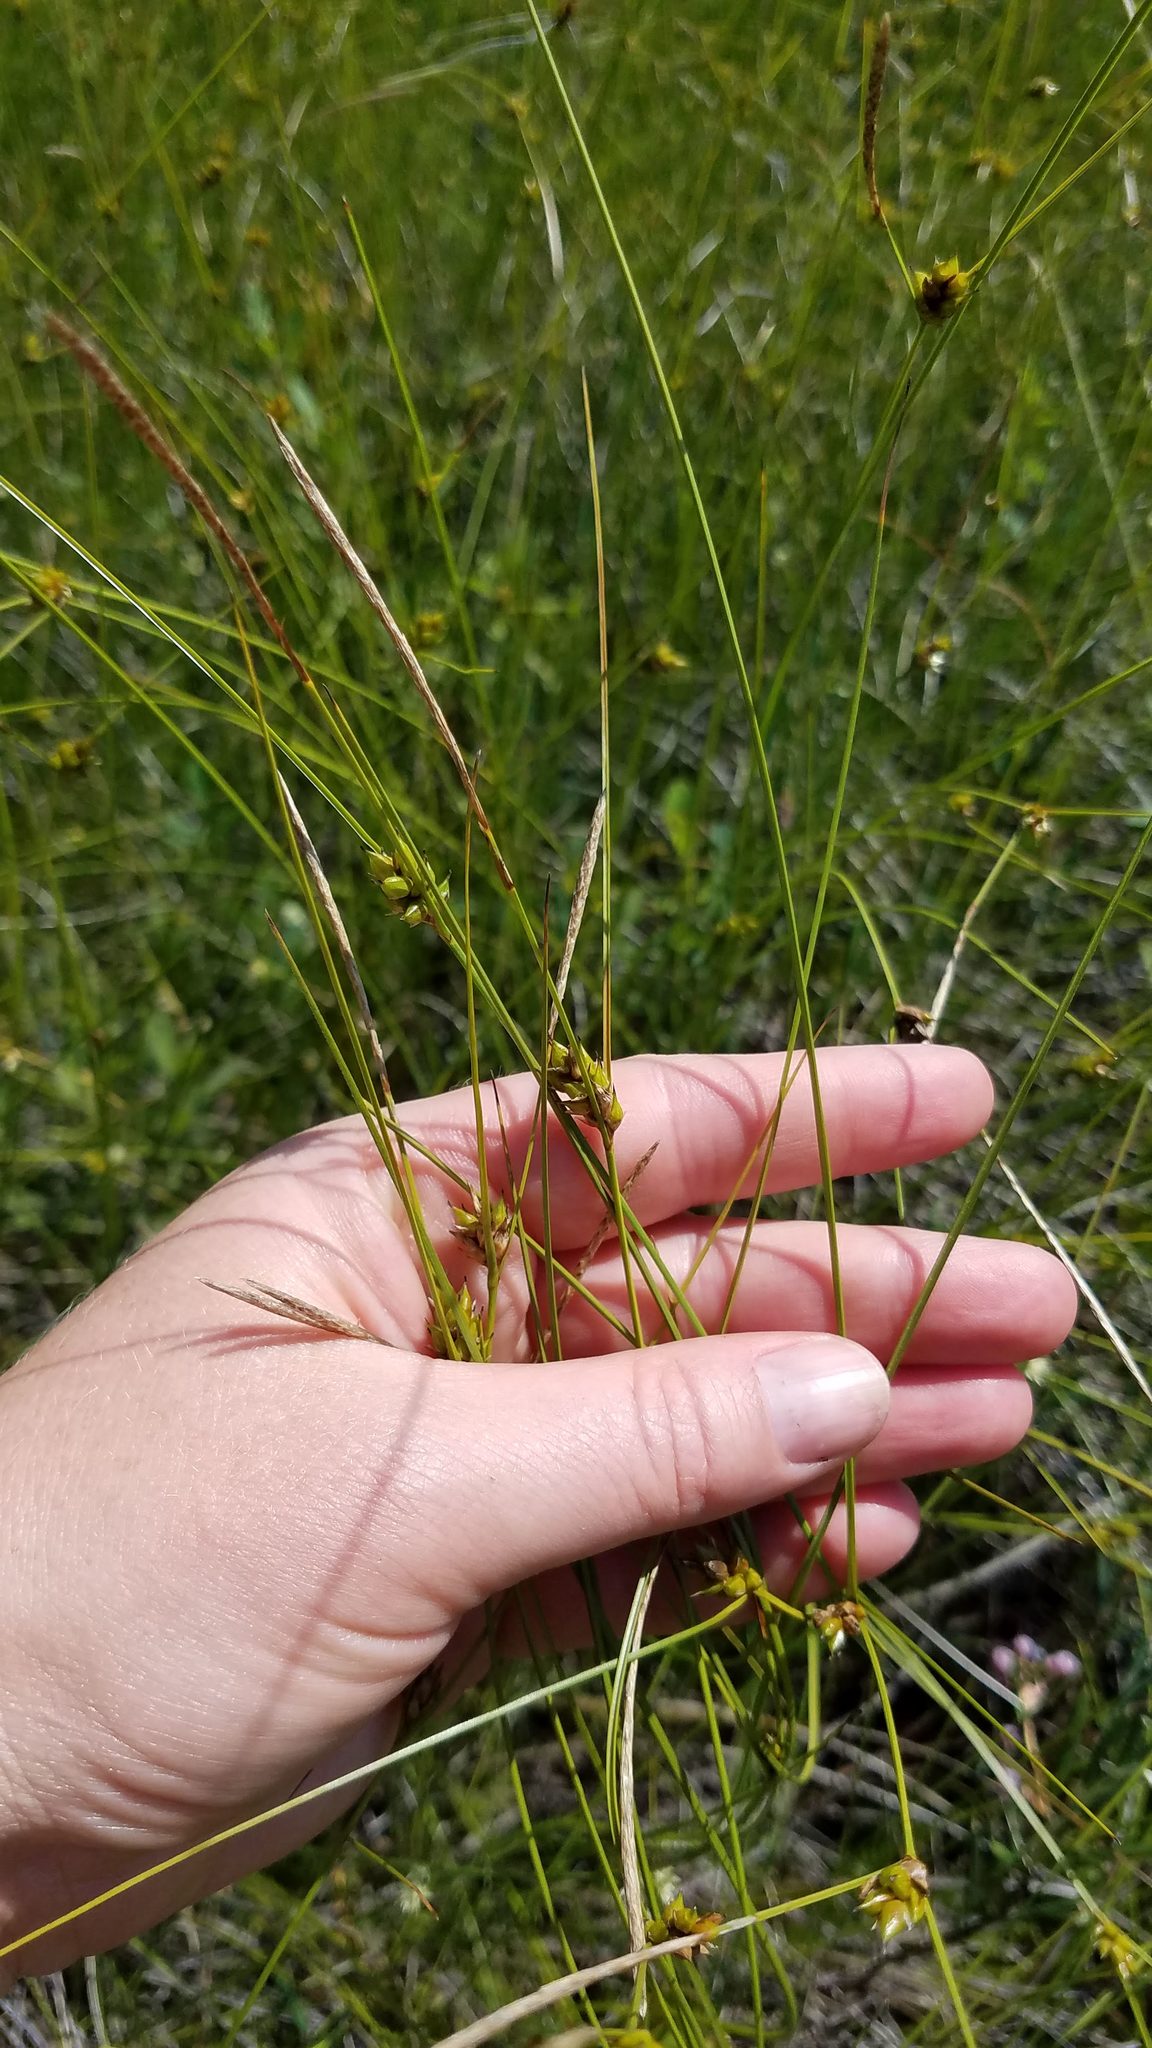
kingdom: Plantae
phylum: Tracheophyta
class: Liliopsida
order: Poales
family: Cyperaceae
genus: Carex
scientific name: Carex oligosperma
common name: Few-seed sedge
